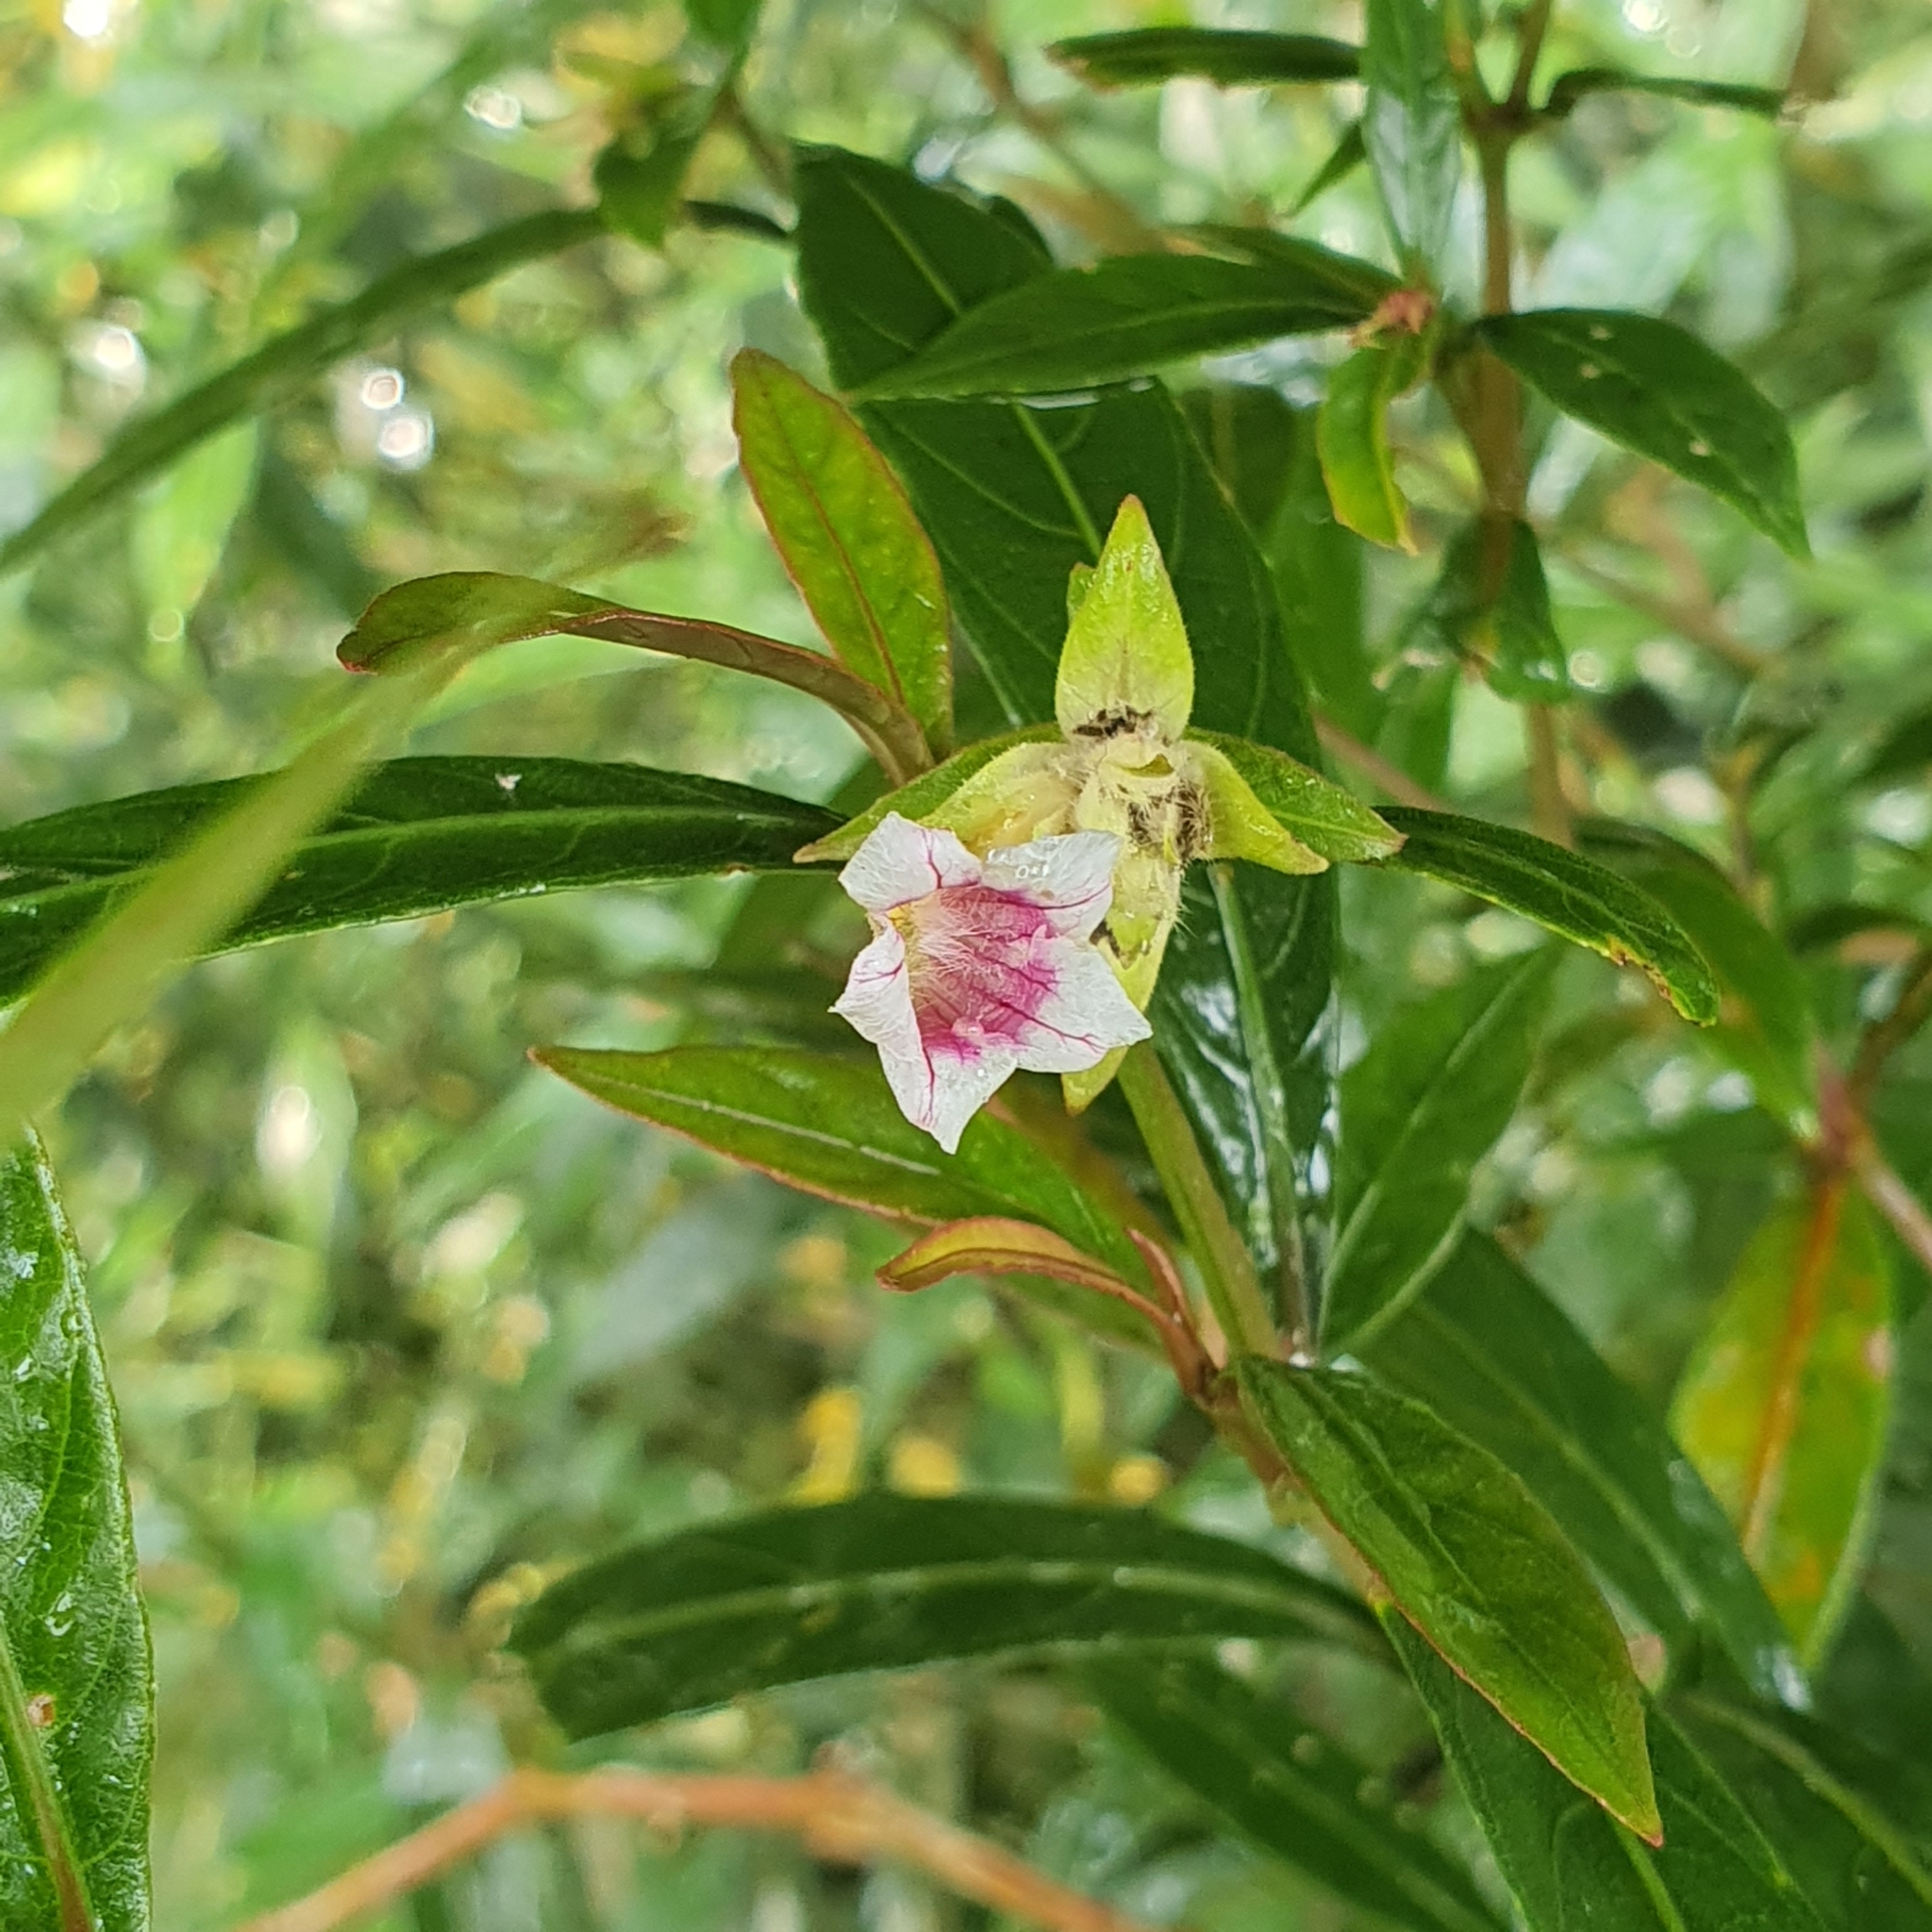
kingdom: Plantae
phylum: Tracheophyta
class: Magnoliopsida
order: Lamiales
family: Acanthaceae
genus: Strobilanthes
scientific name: Strobilanthes schomburgkii
